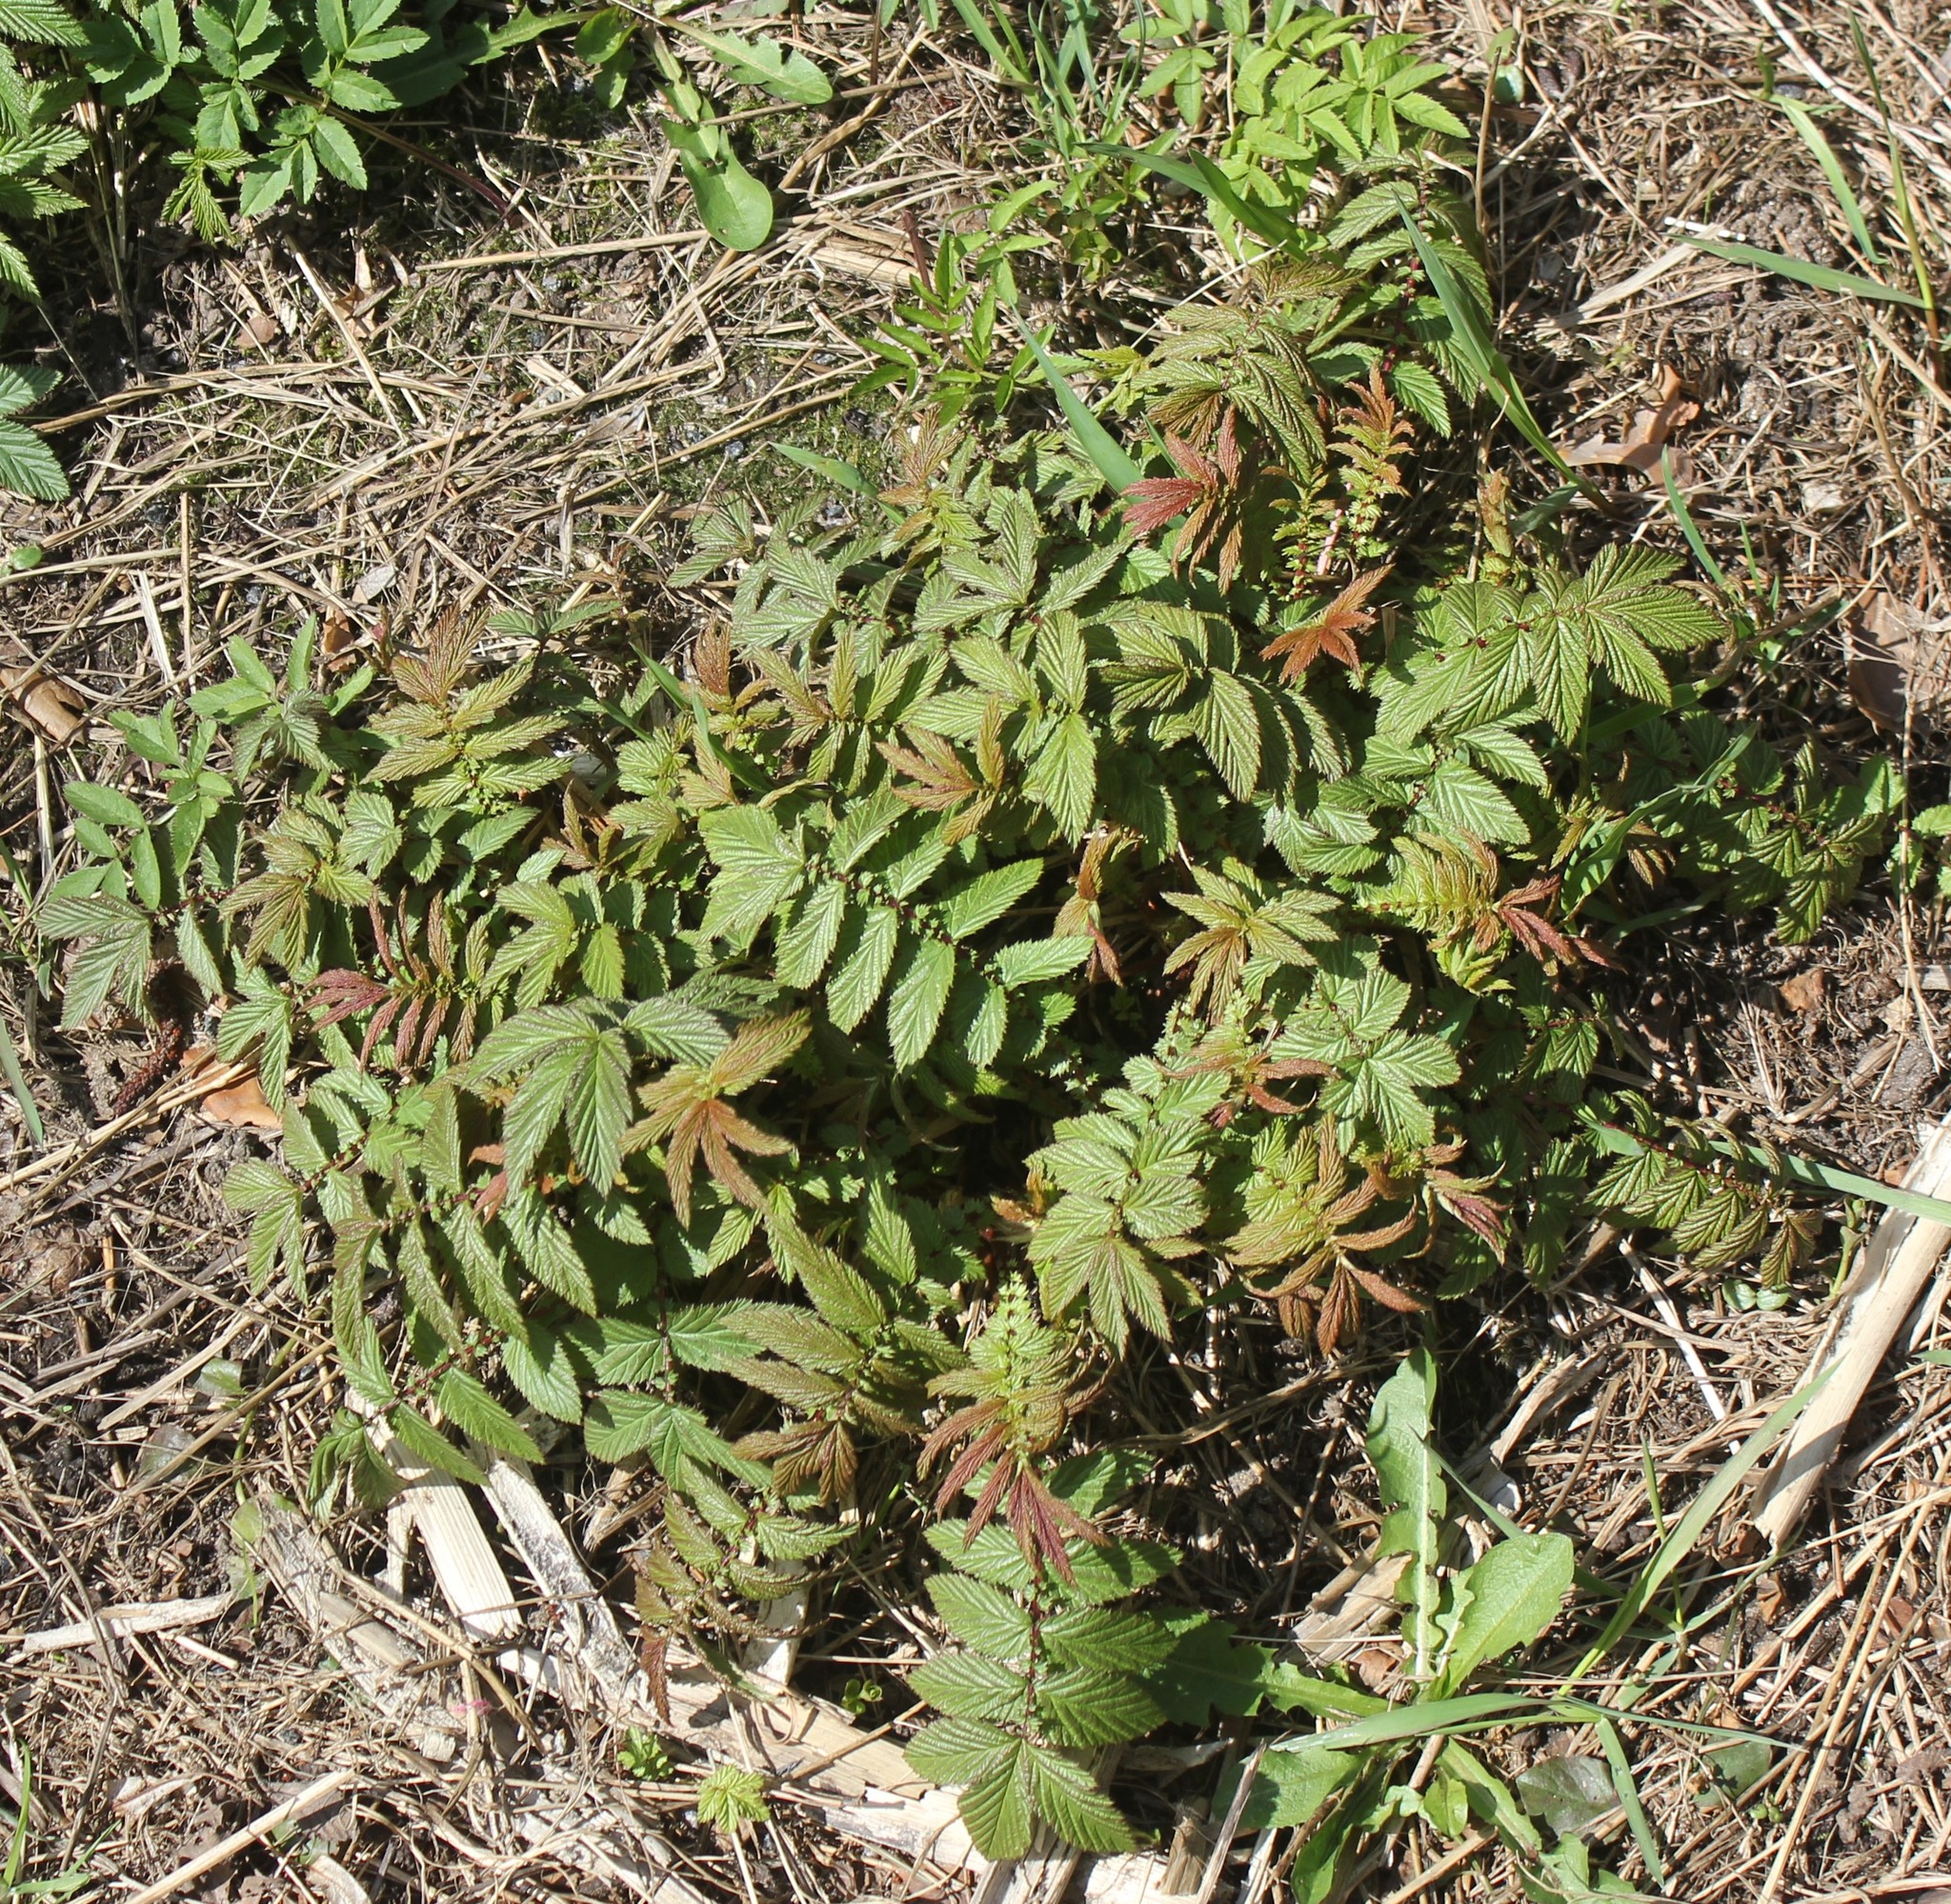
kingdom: Plantae
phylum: Tracheophyta
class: Magnoliopsida
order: Rosales
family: Rosaceae
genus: Filipendula
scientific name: Filipendula ulmaria
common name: Meadowsweet
